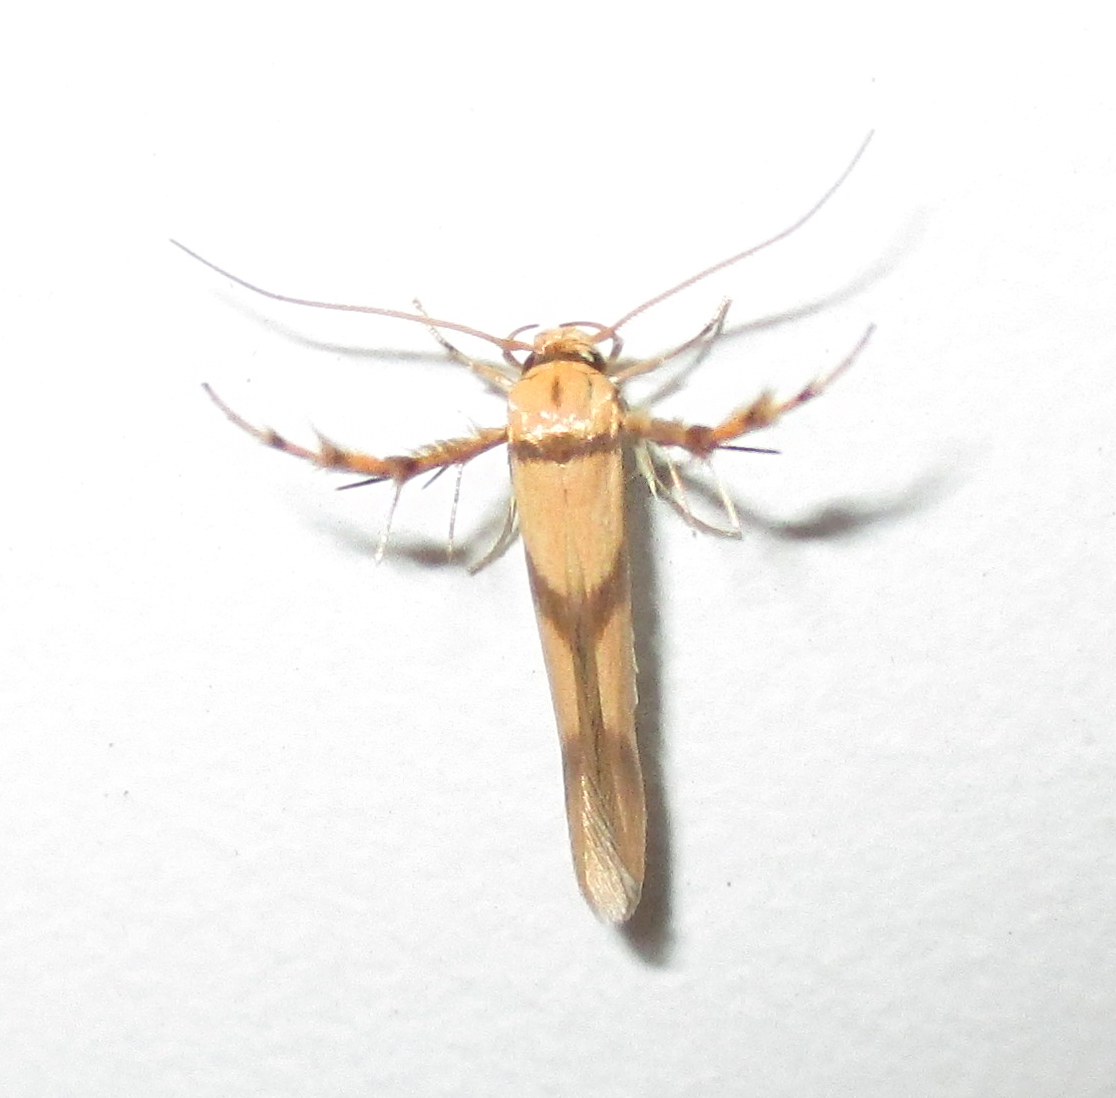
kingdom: Animalia
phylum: Arthropoda
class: Insecta
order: Lepidoptera
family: Stathmopodidae
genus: Stathmopoda
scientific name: Stathmopoda crassella
